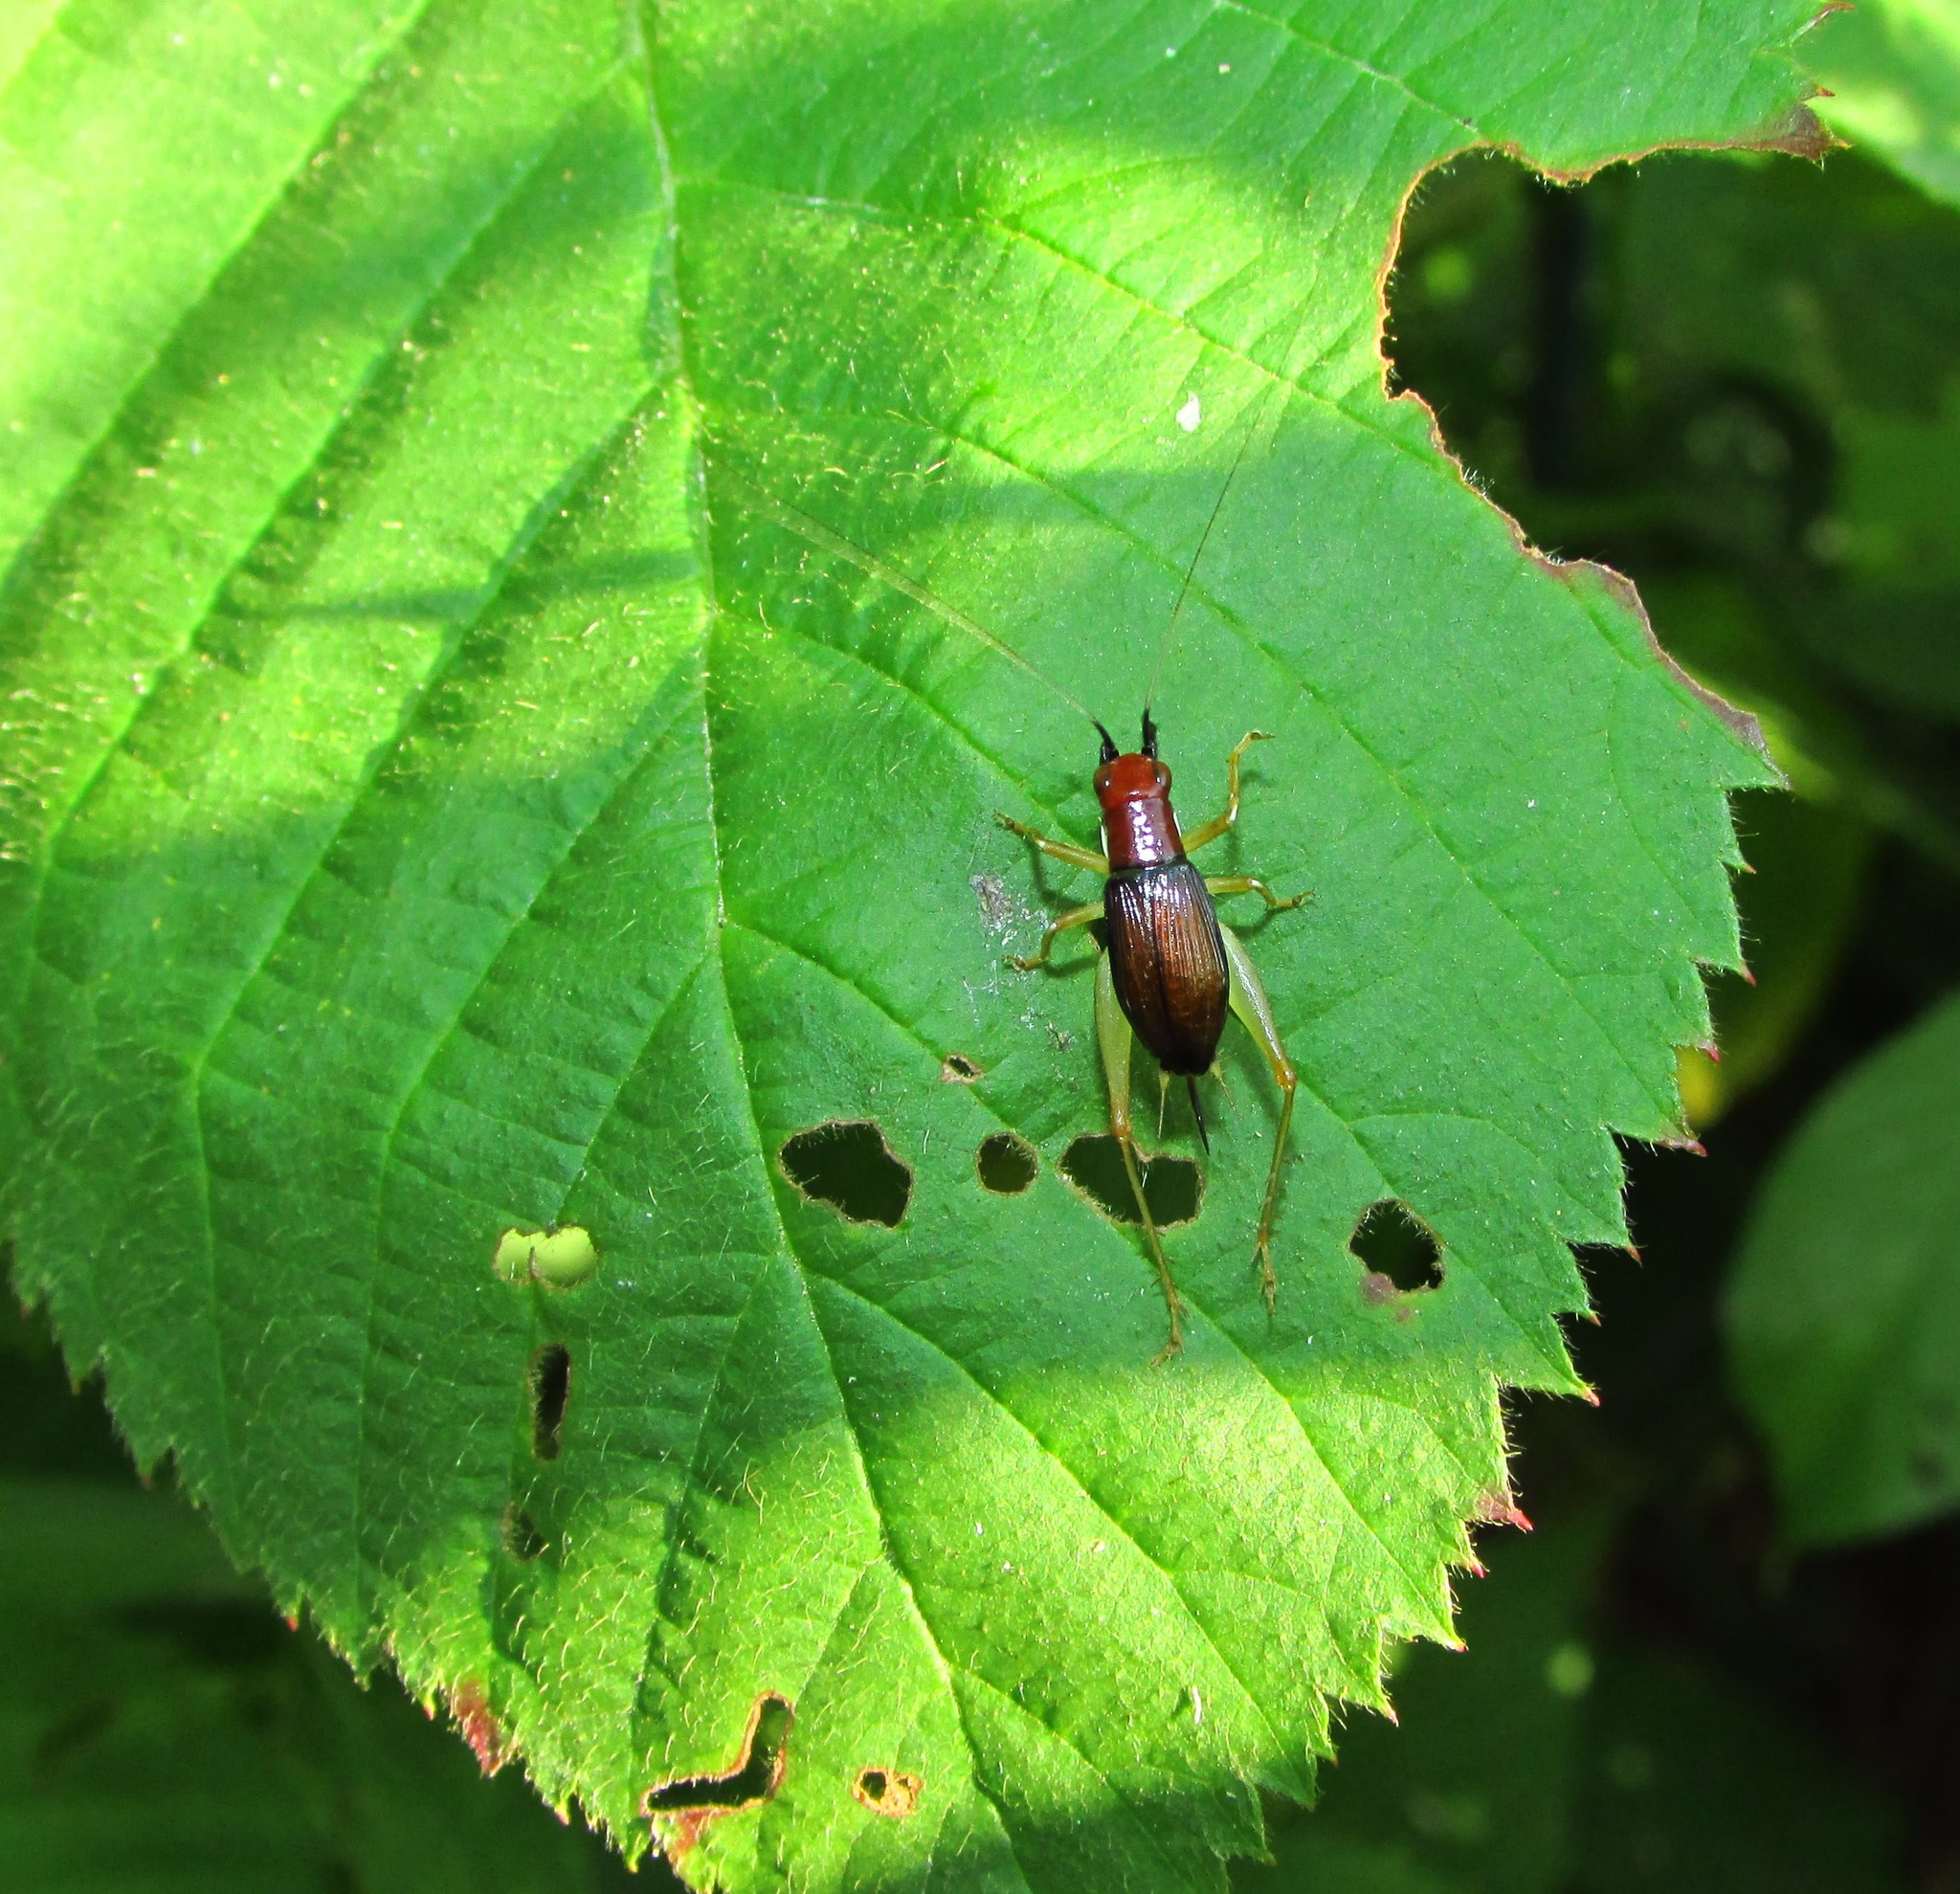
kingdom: Animalia
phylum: Arthropoda
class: Insecta
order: Orthoptera
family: Trigonidiidae
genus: Phyllopalpus
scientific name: Phyllopalpus pulchellus
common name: Handsome trig
